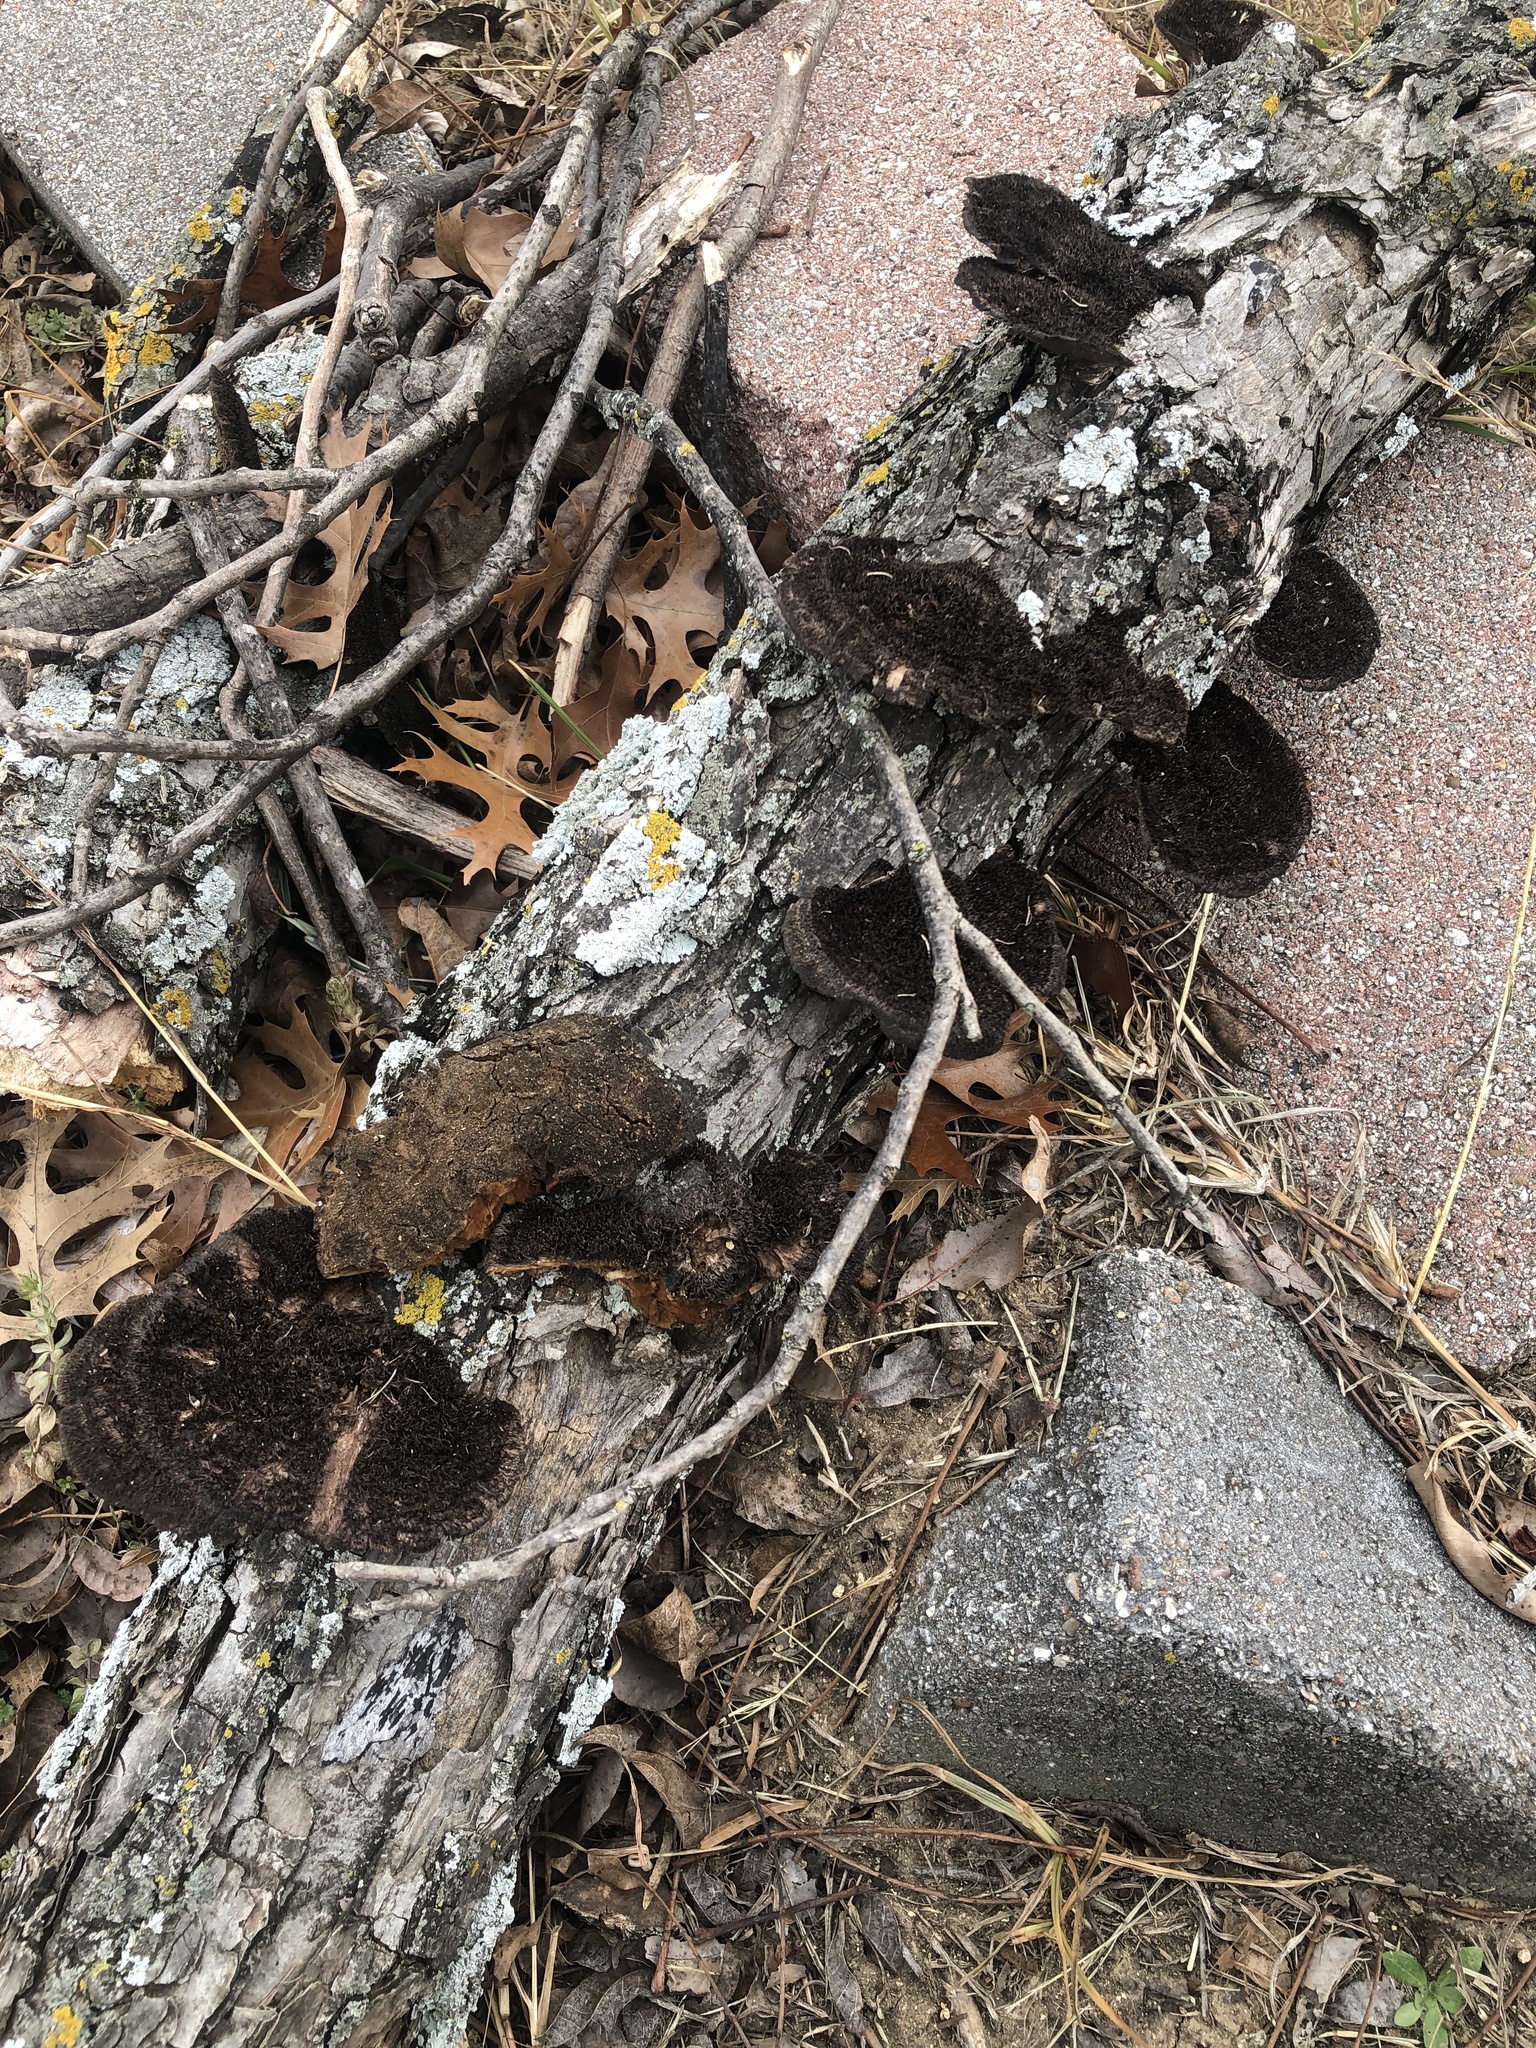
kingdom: Fungi
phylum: Basidiomycota
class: Agaricomycetes
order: Polyporales
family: Cerrenaceae
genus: Cerrena
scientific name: Cerrena hydnoides
